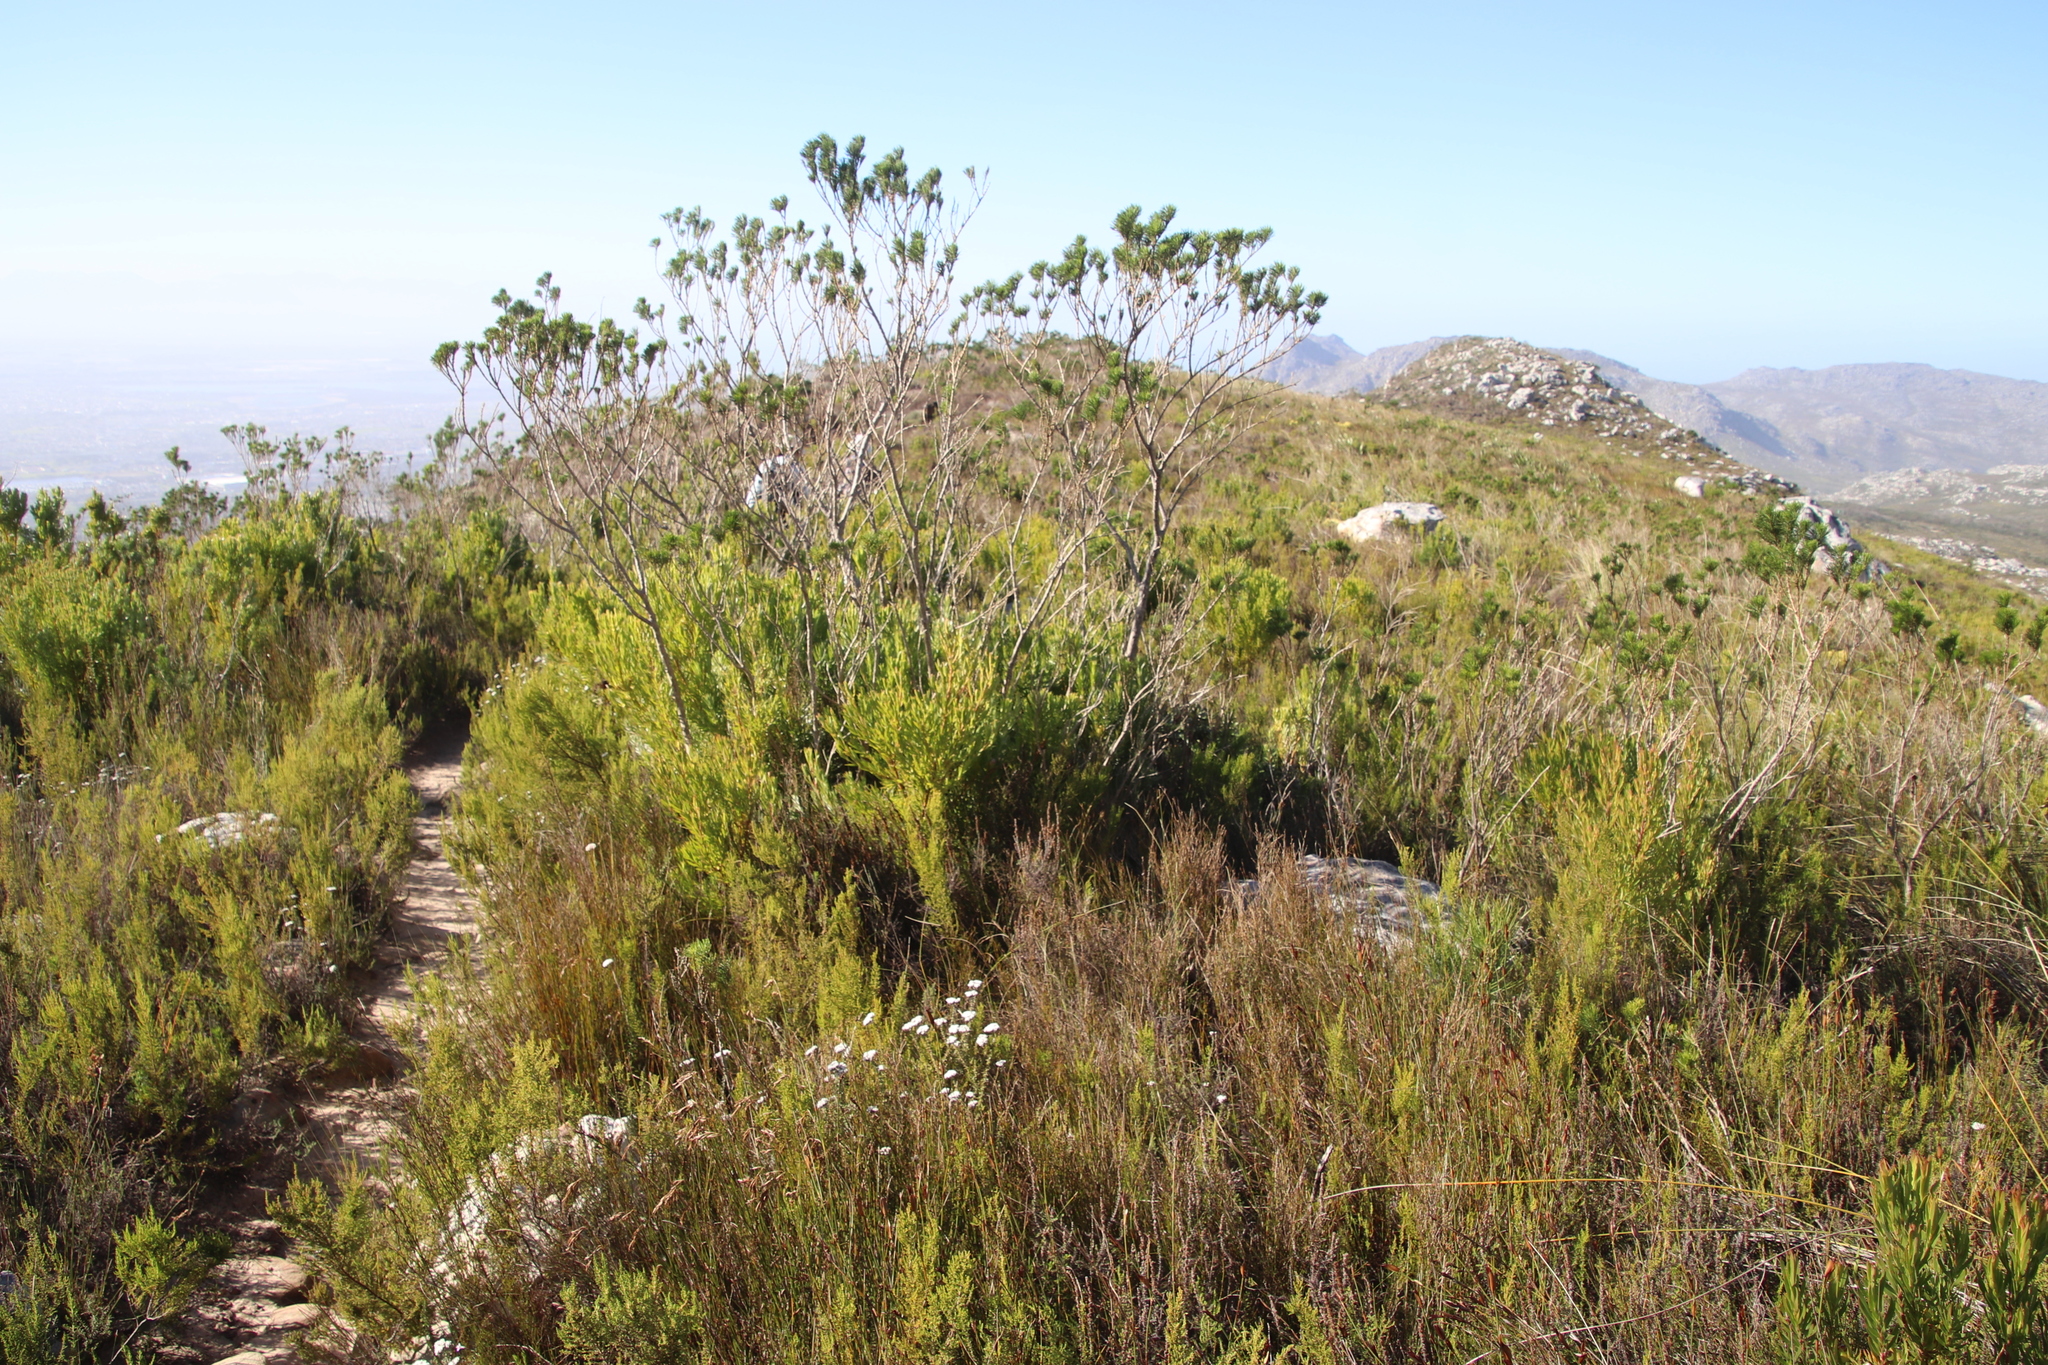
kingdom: Plantae
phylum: Tracheophyta
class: Magnoliopsida
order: Fabales
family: Fabaceae
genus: Psoralea
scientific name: Psoralea pinnata
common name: African scurfpea
